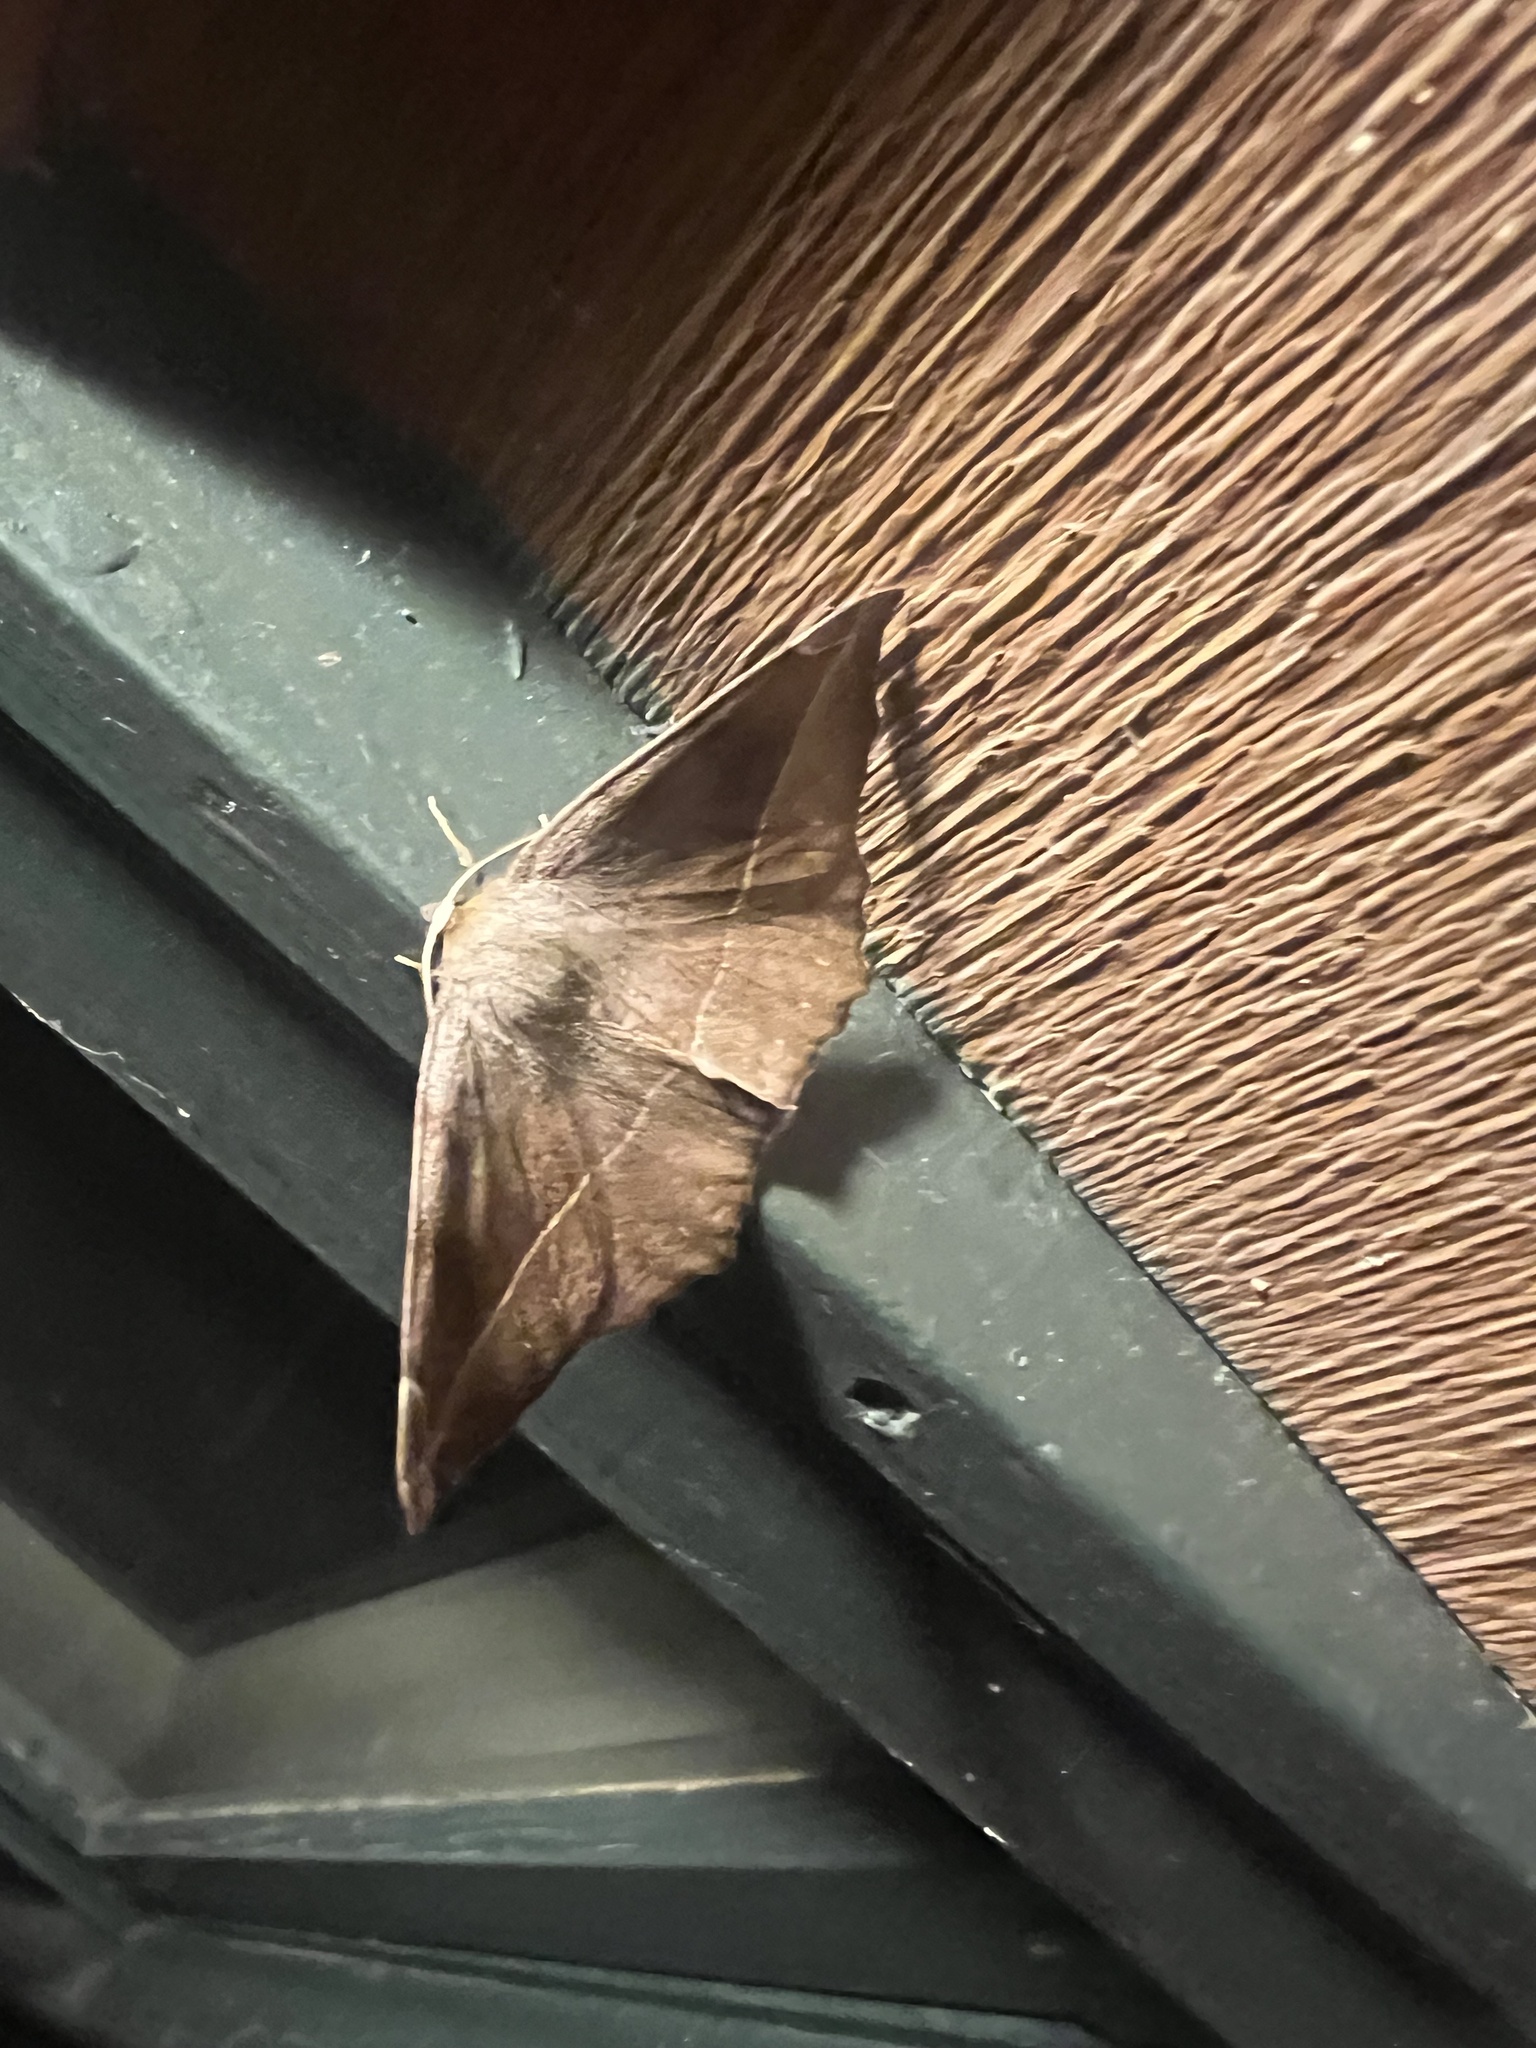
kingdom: Animalia
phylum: Arthropoda
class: Insecta
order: Lepidoptera
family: Geometridae
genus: Eutrapela
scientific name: Eutrapela clemataria
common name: Curved-toothed geometer
